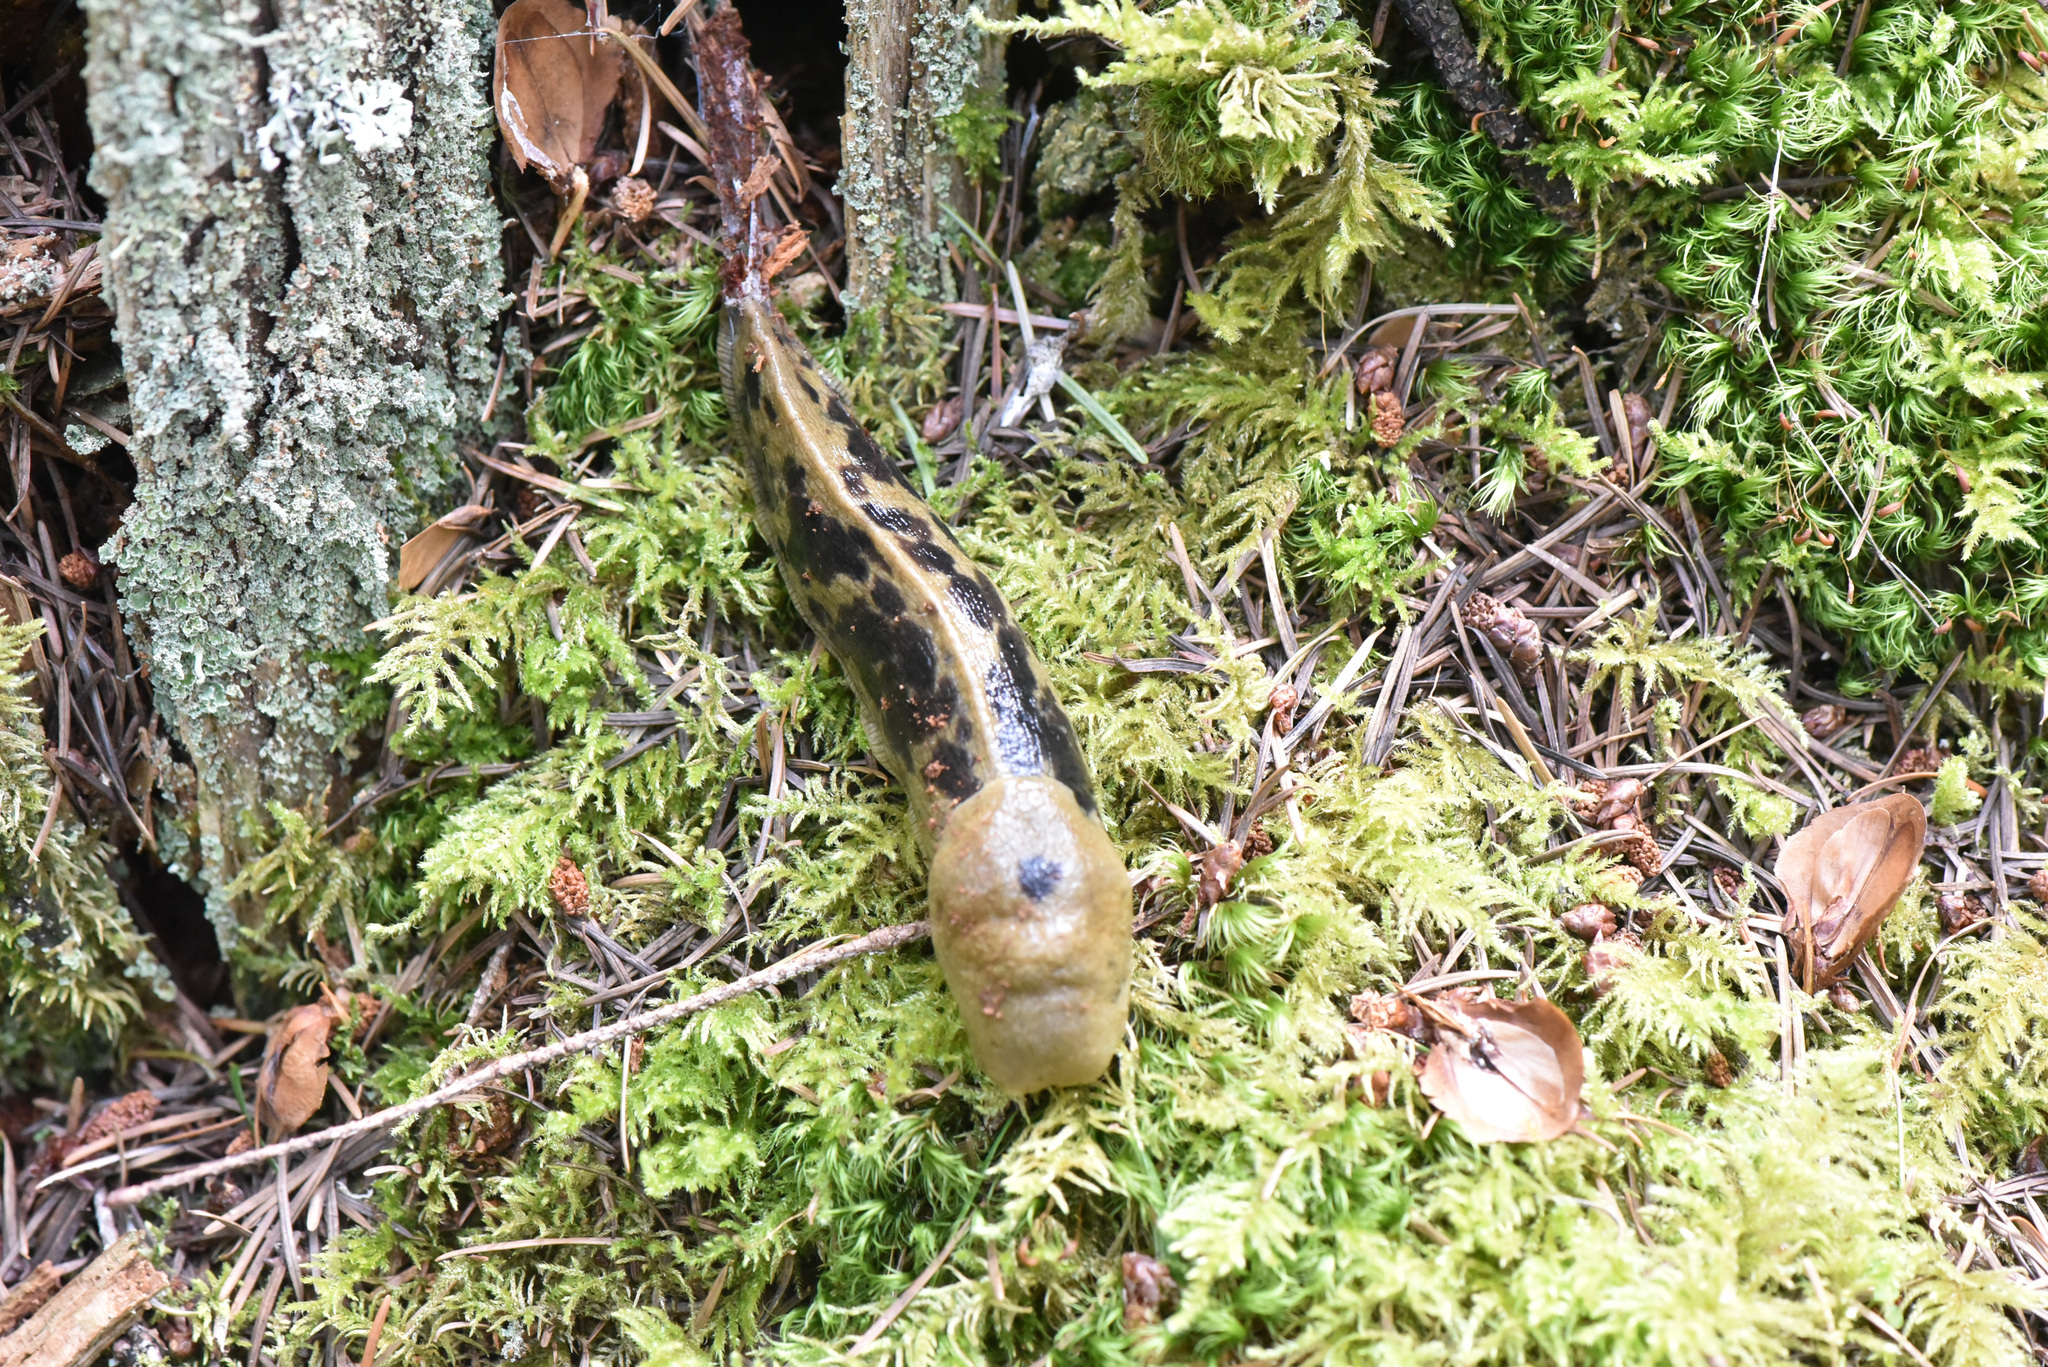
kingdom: Animalia
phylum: Mollusca
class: Gastropoda
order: Stylommatophora
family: Ariolimacidae
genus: Ariolimax
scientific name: Ariolimax columbianus
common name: Pacific banana slug
